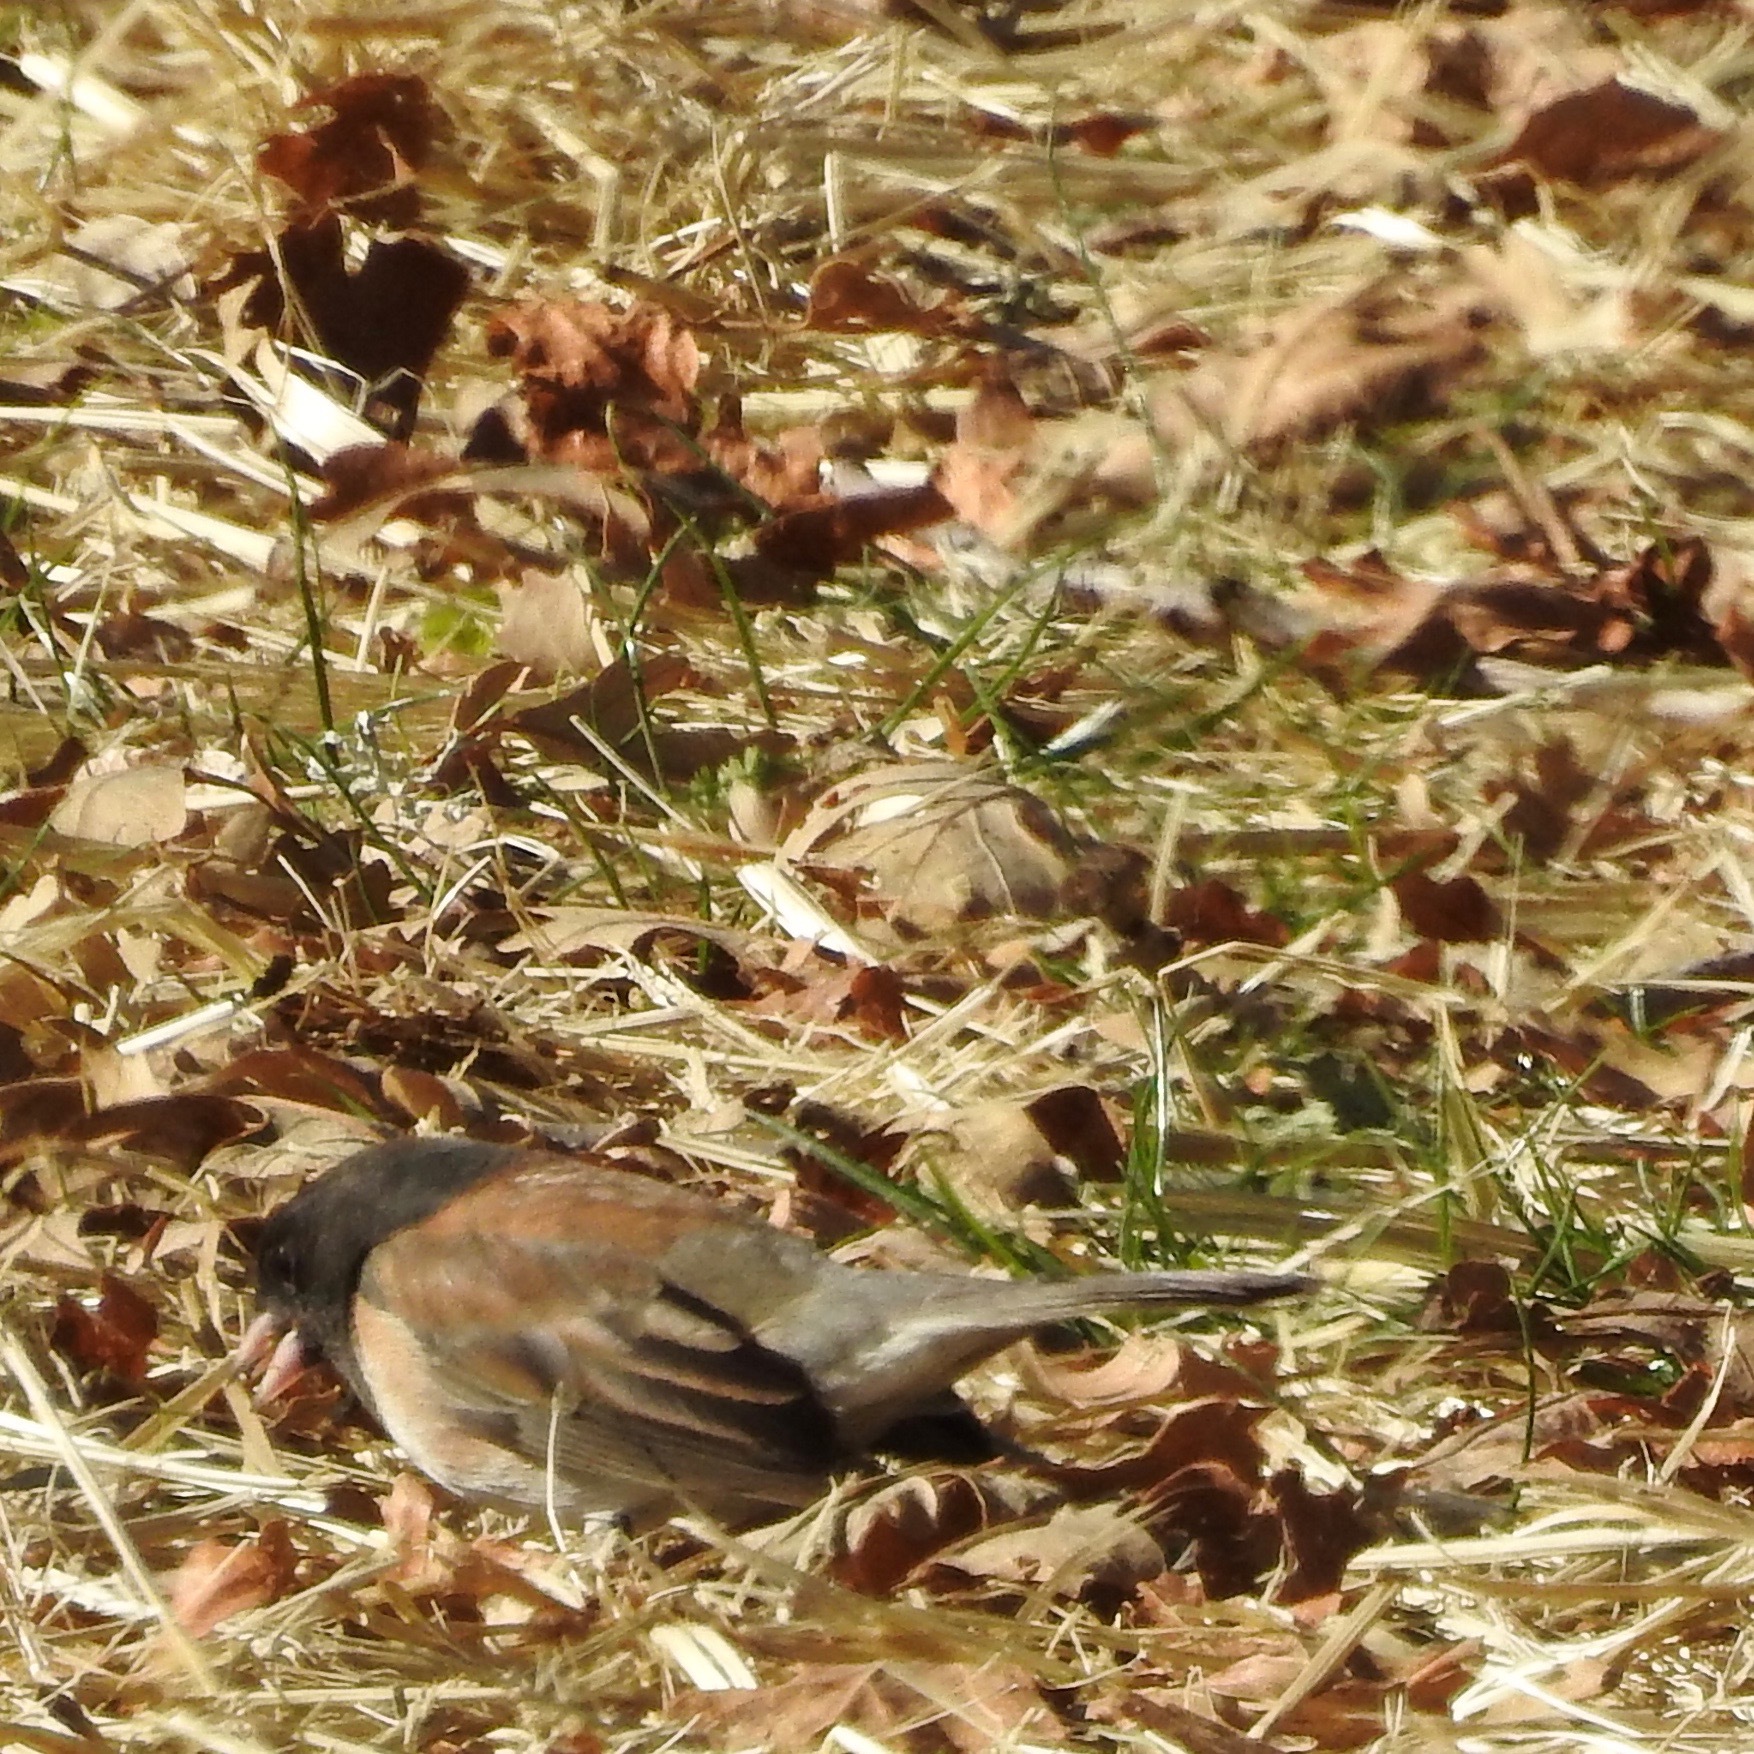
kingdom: Animalia
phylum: Chordata
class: Aves
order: Passeriformes
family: Passerellidae
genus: Junco
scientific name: Junco hyemalis
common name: Dark-eyed junco
